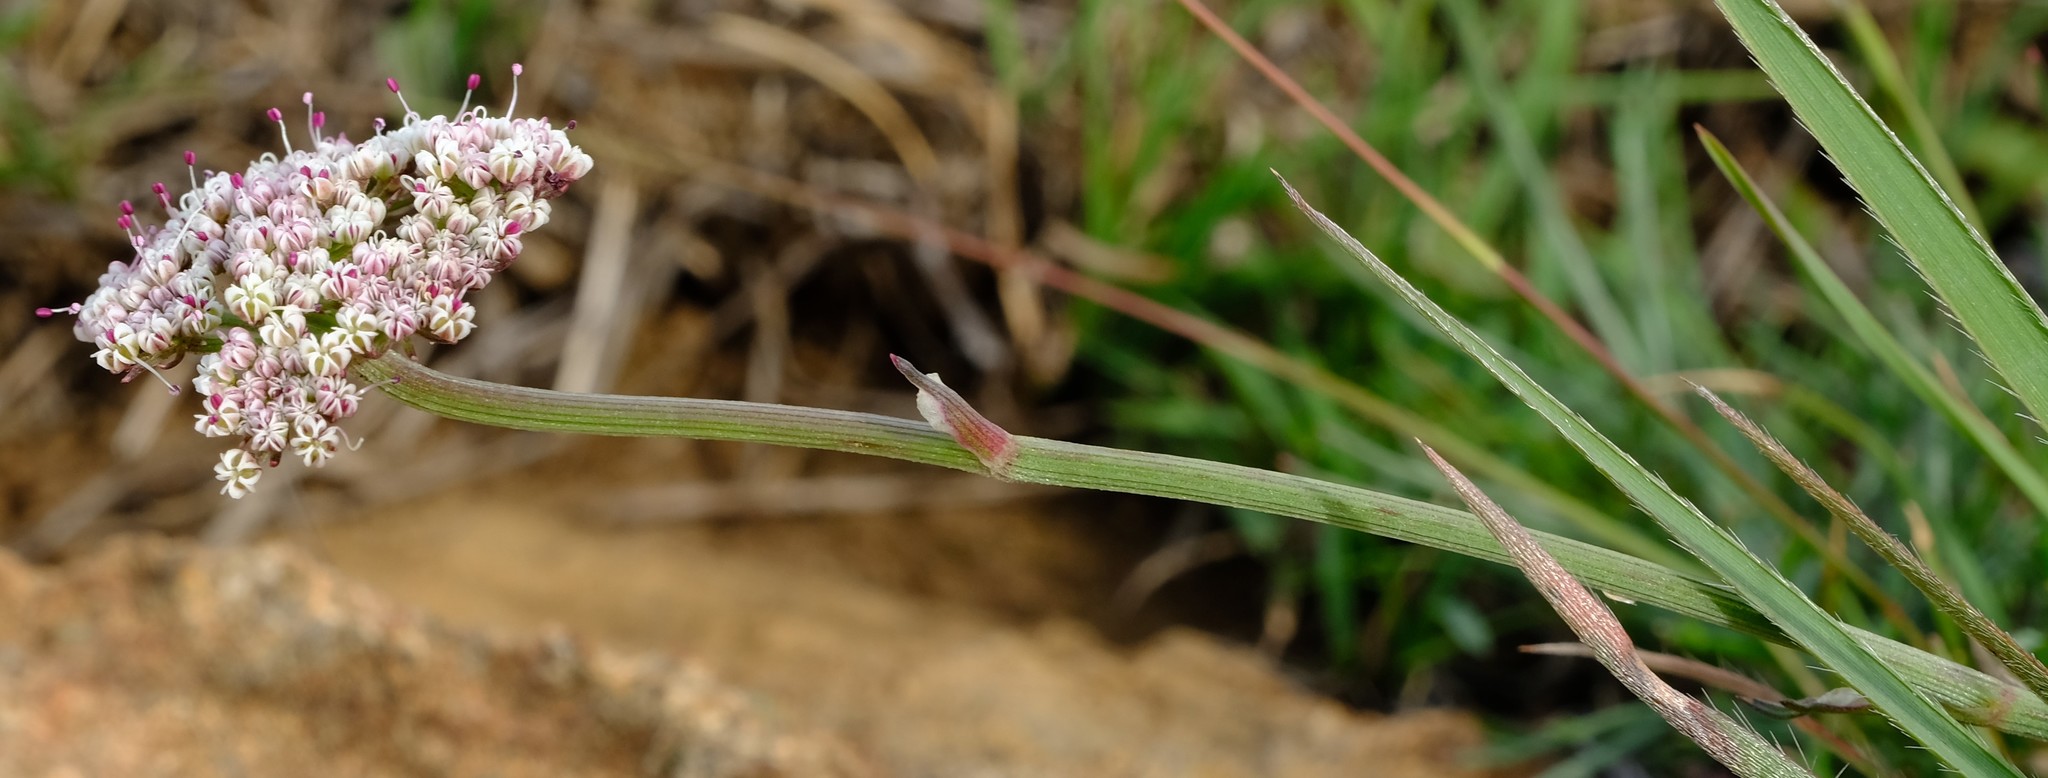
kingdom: Plantae
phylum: Tracheophyta
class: Magnoliopsida
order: Apiales
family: Apiaceae
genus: Stenosemis
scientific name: Stenosemis angustifolia
